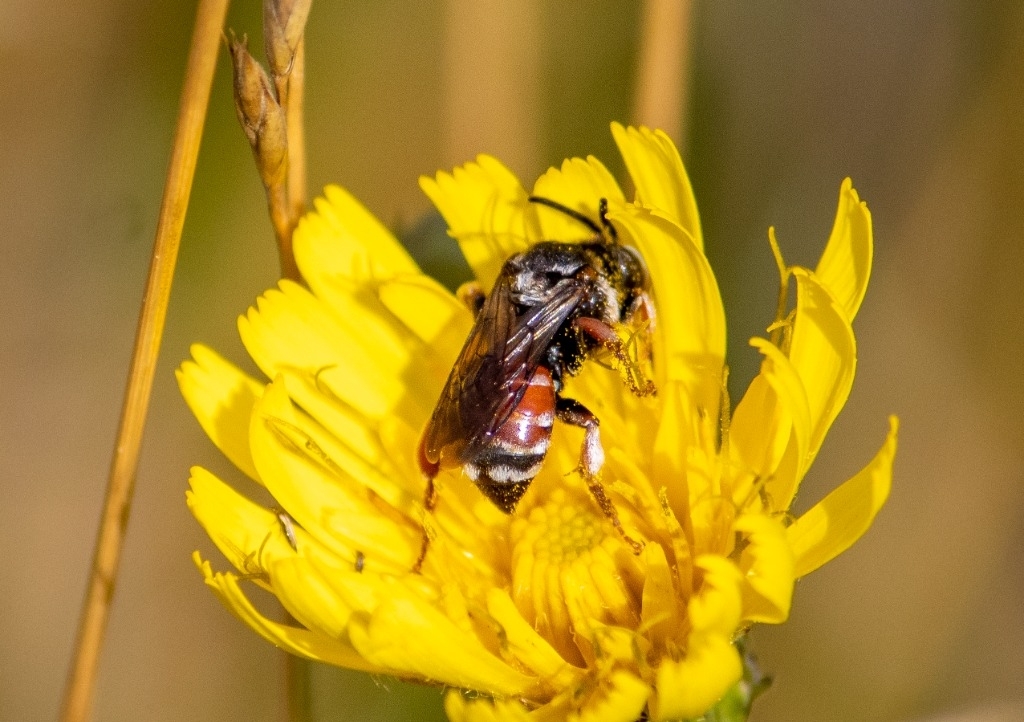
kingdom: Animalia
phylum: Arthropoda
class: Insecta
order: Hymenoptera
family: Apidae
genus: Epeoloides
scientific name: Epeoloides coecutiens
